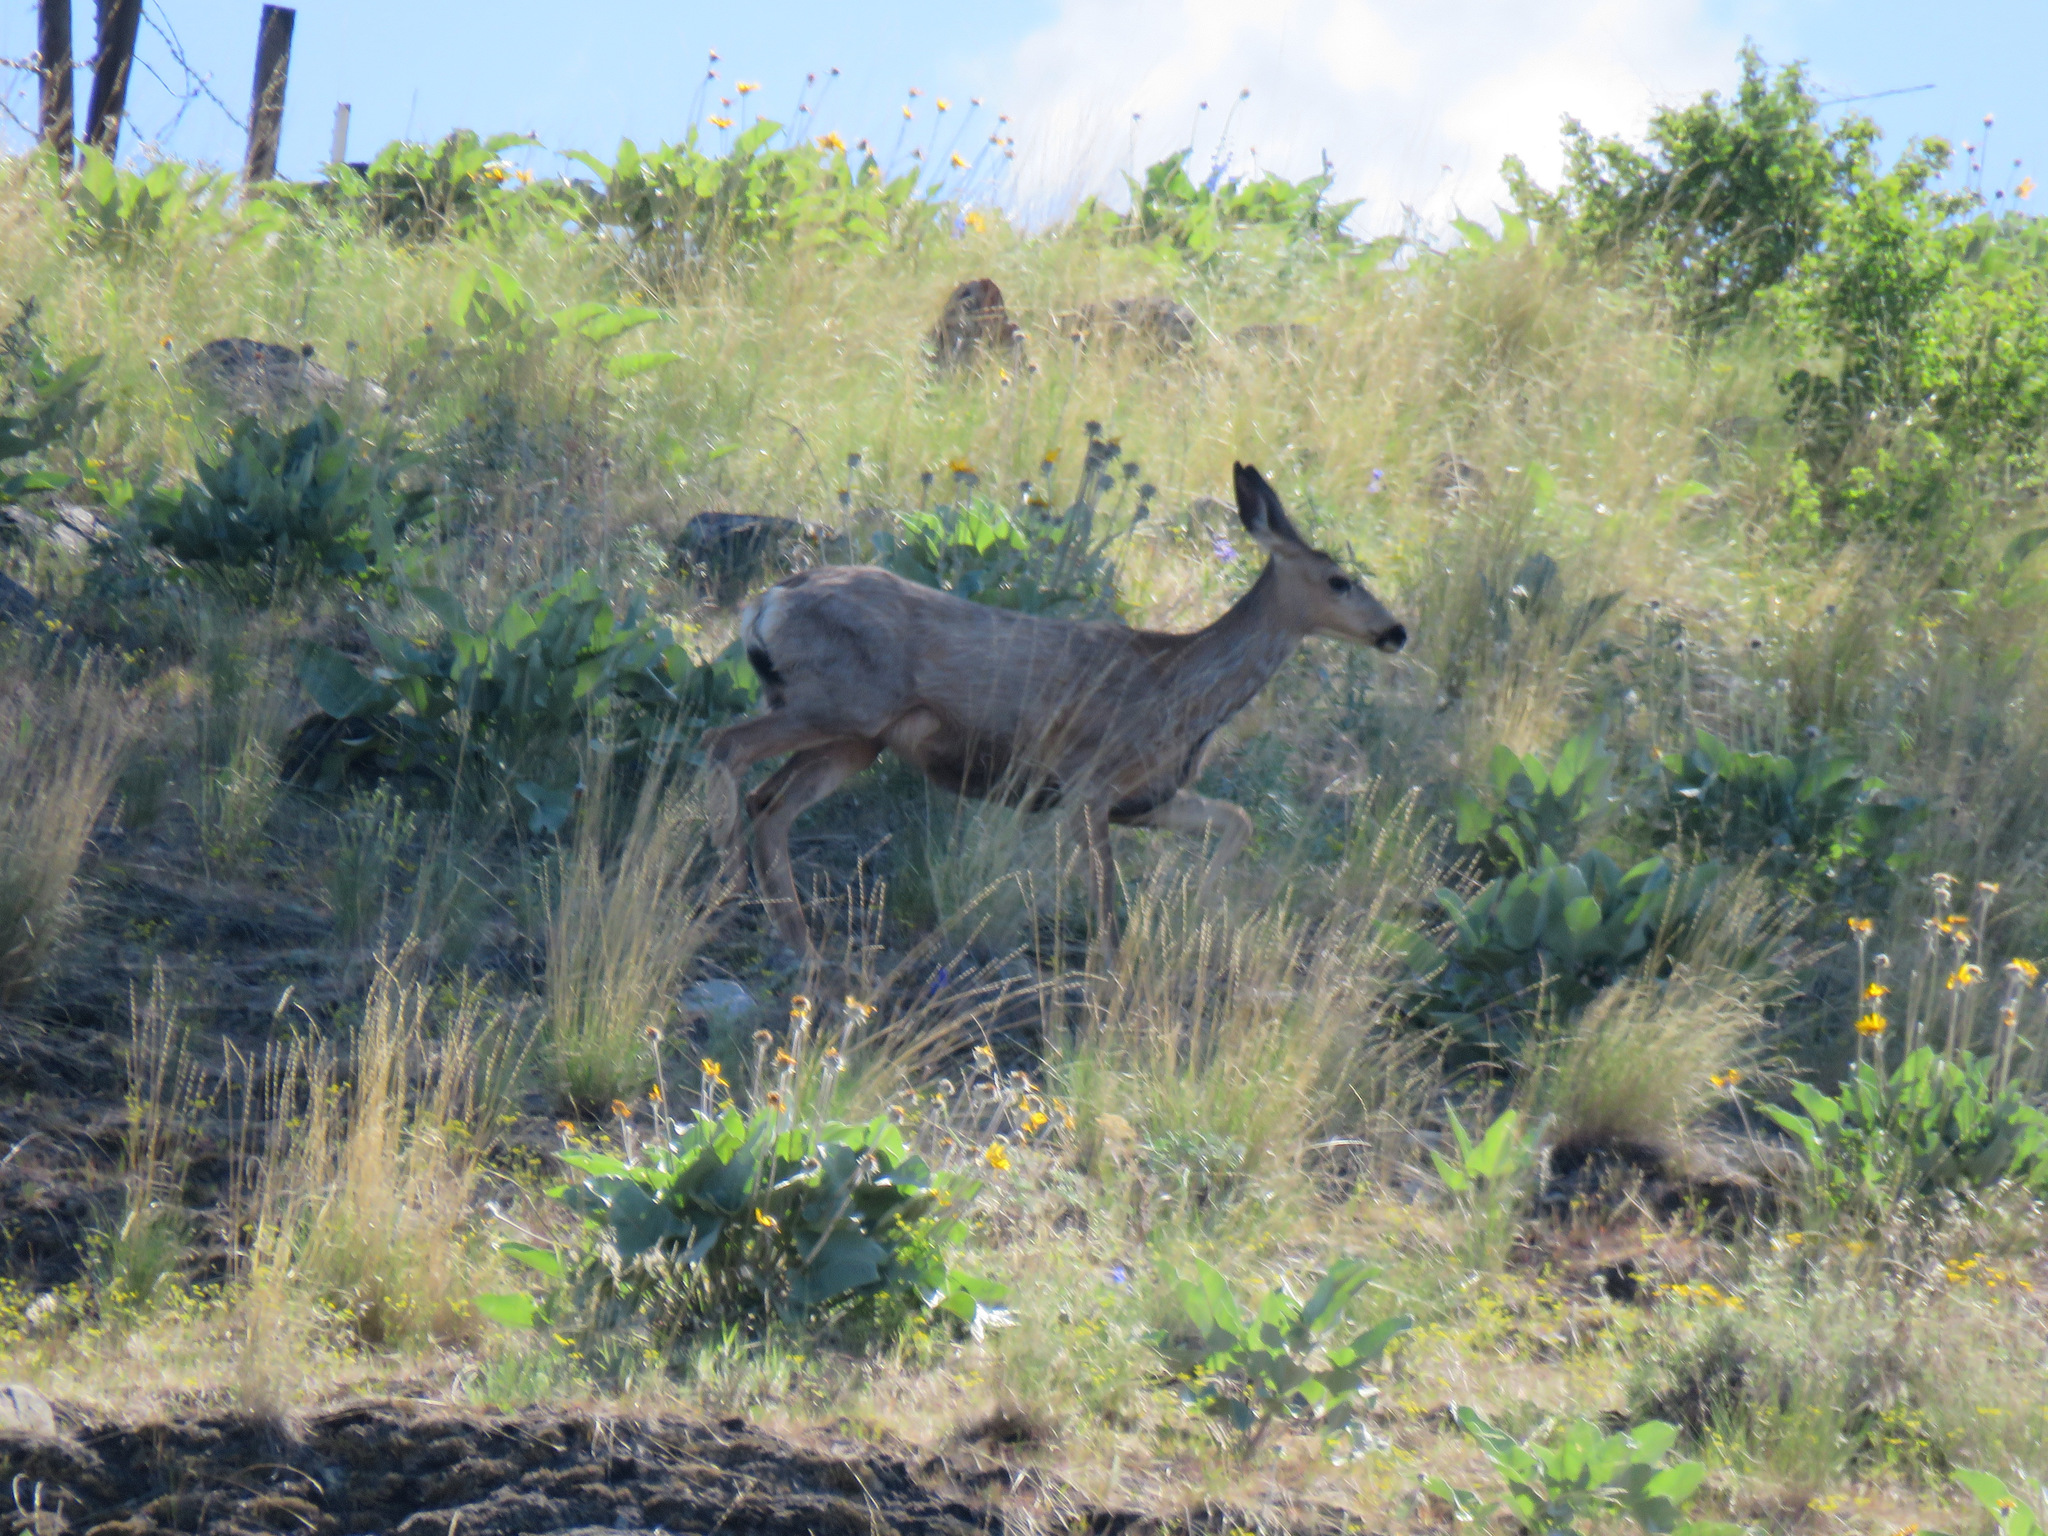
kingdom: Animalia
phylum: Chordata
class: Mammalia
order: Artiodactyla
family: Cervidae
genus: Odocoileus
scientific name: Odocoileus hemionus
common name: Mule deer
